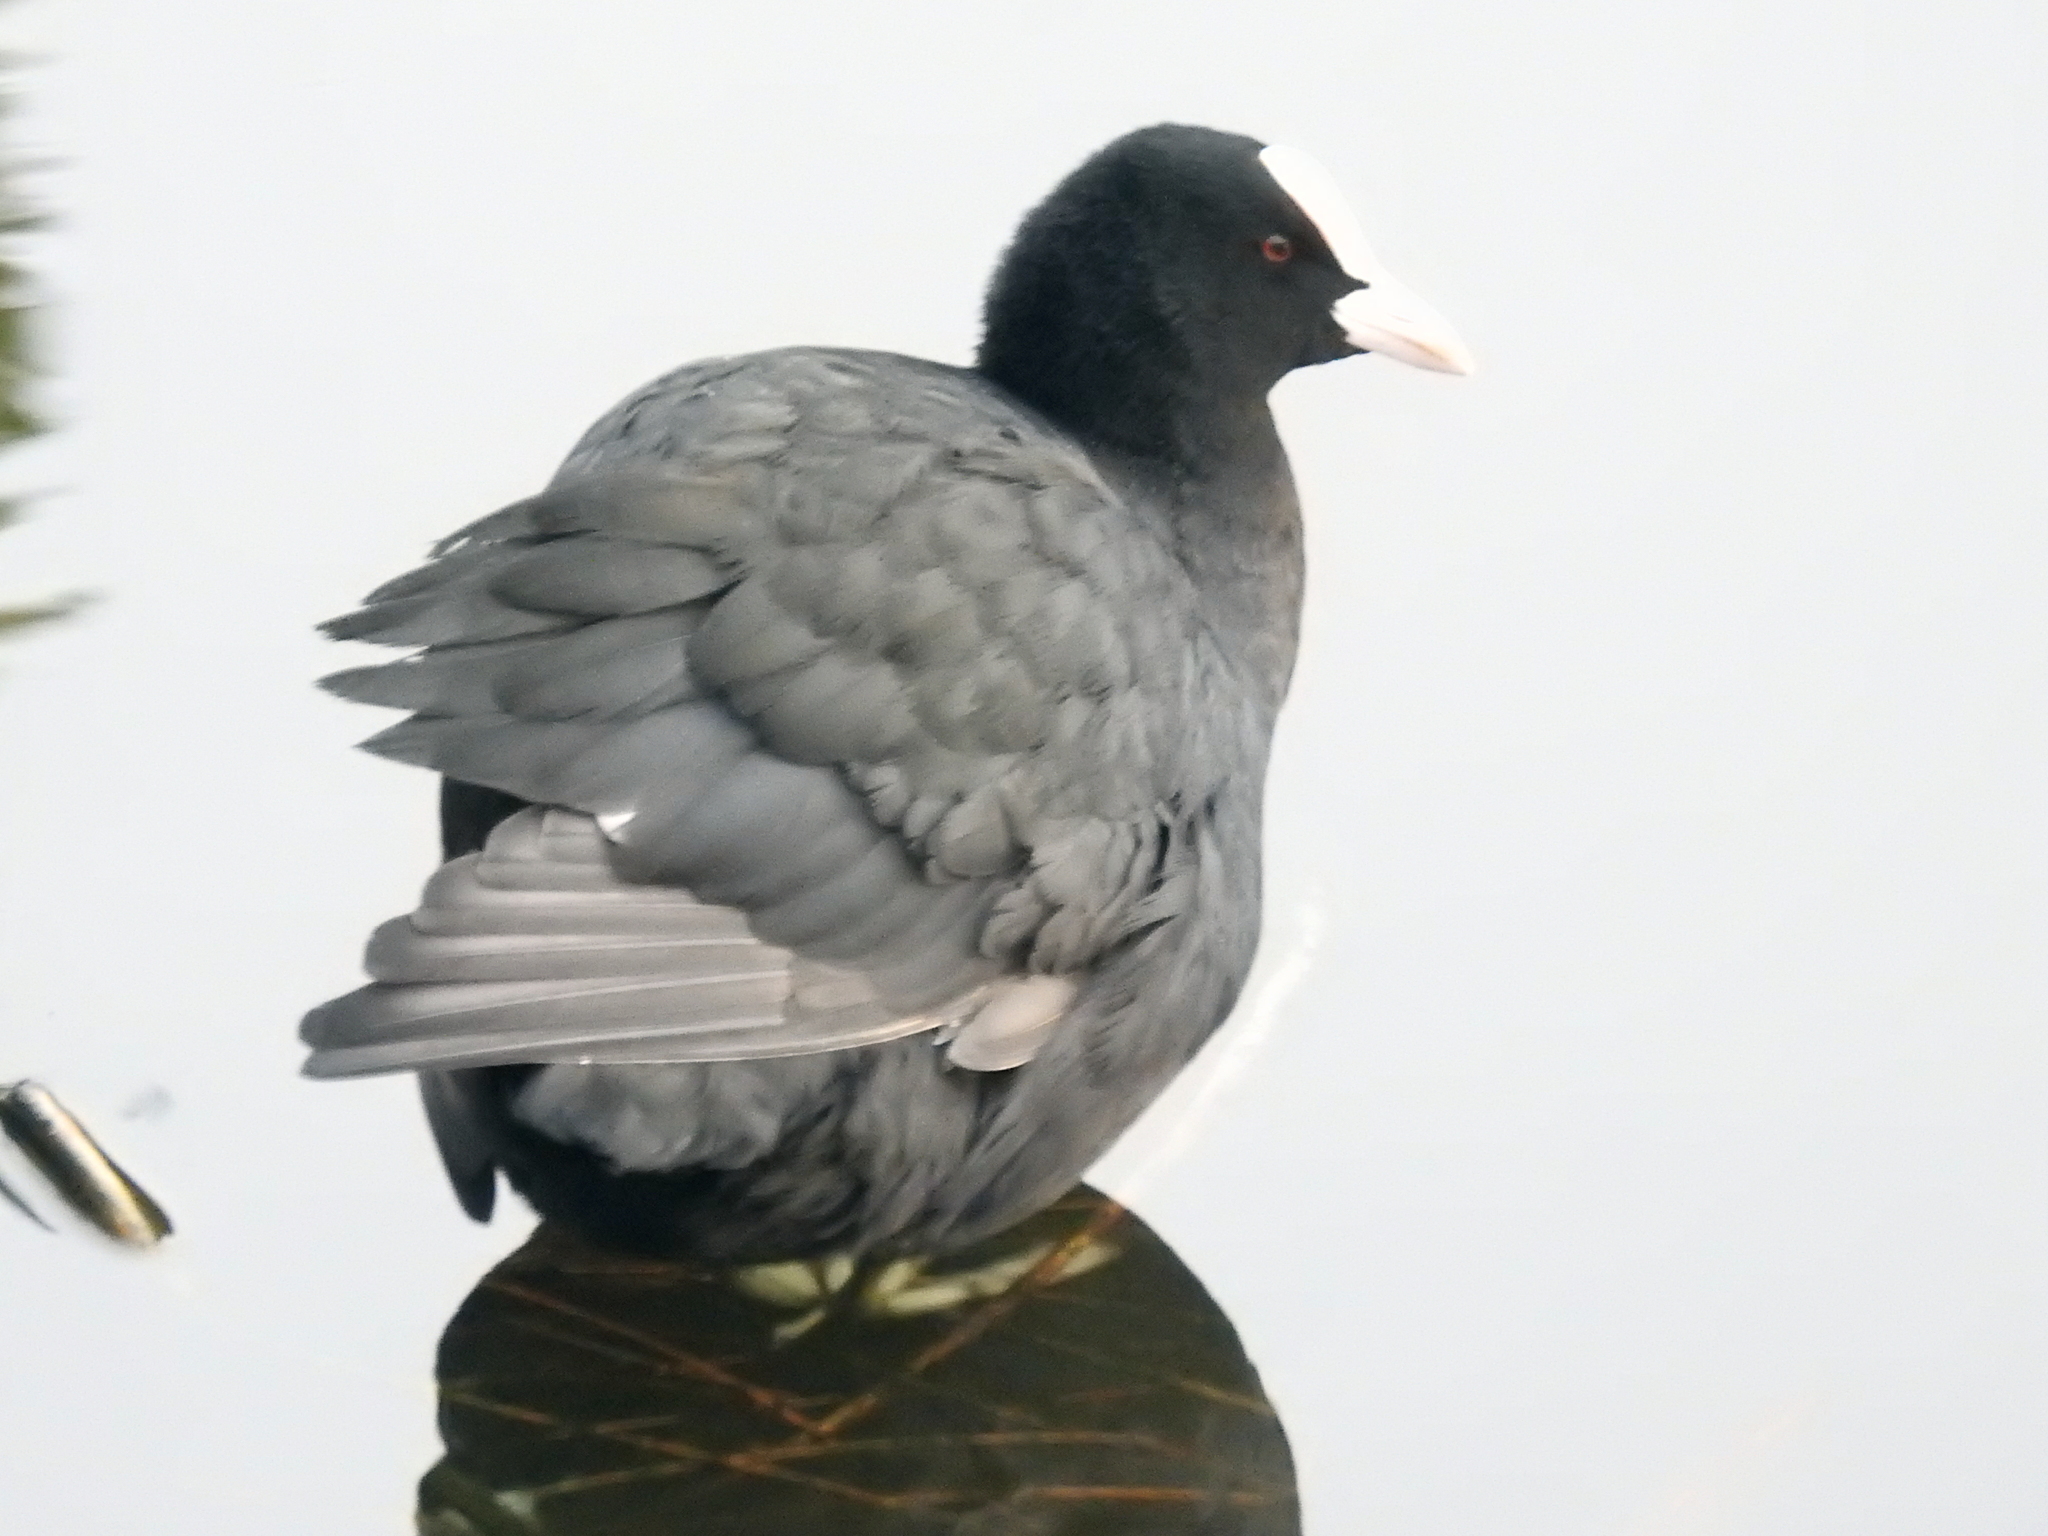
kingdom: Animalia
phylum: Chordata
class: Aves
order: Gruiformes
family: Rallidae
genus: Fulica
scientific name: Fulica atra
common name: Eurasian coot
